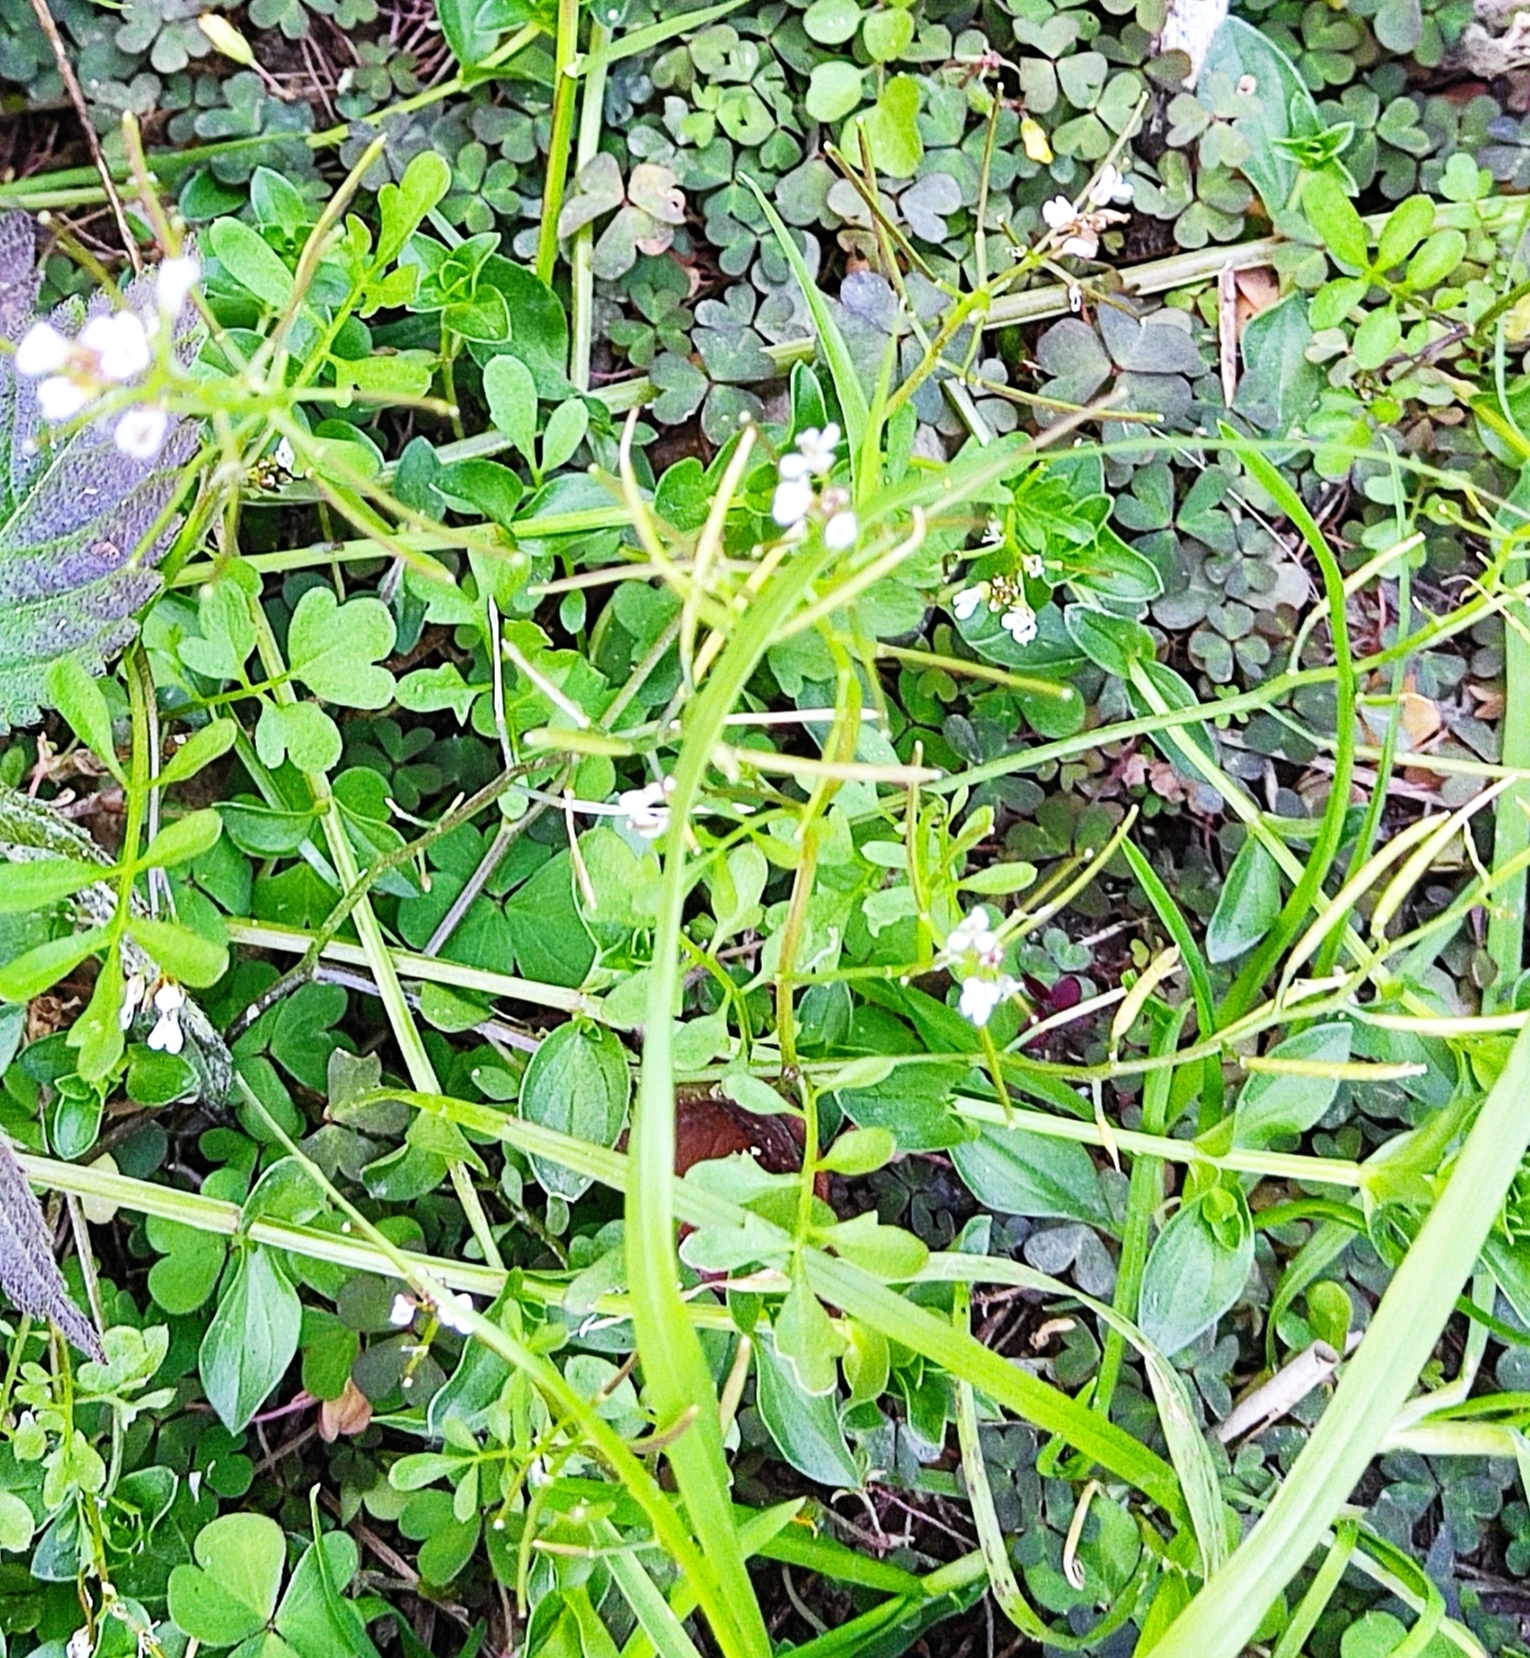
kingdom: Plantae
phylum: Tracheophyta
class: Magnoliopsida
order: Brassicales
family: Brassicaceae
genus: Cardamine
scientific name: Cardamine occulta
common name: Asian wavy bittercress
